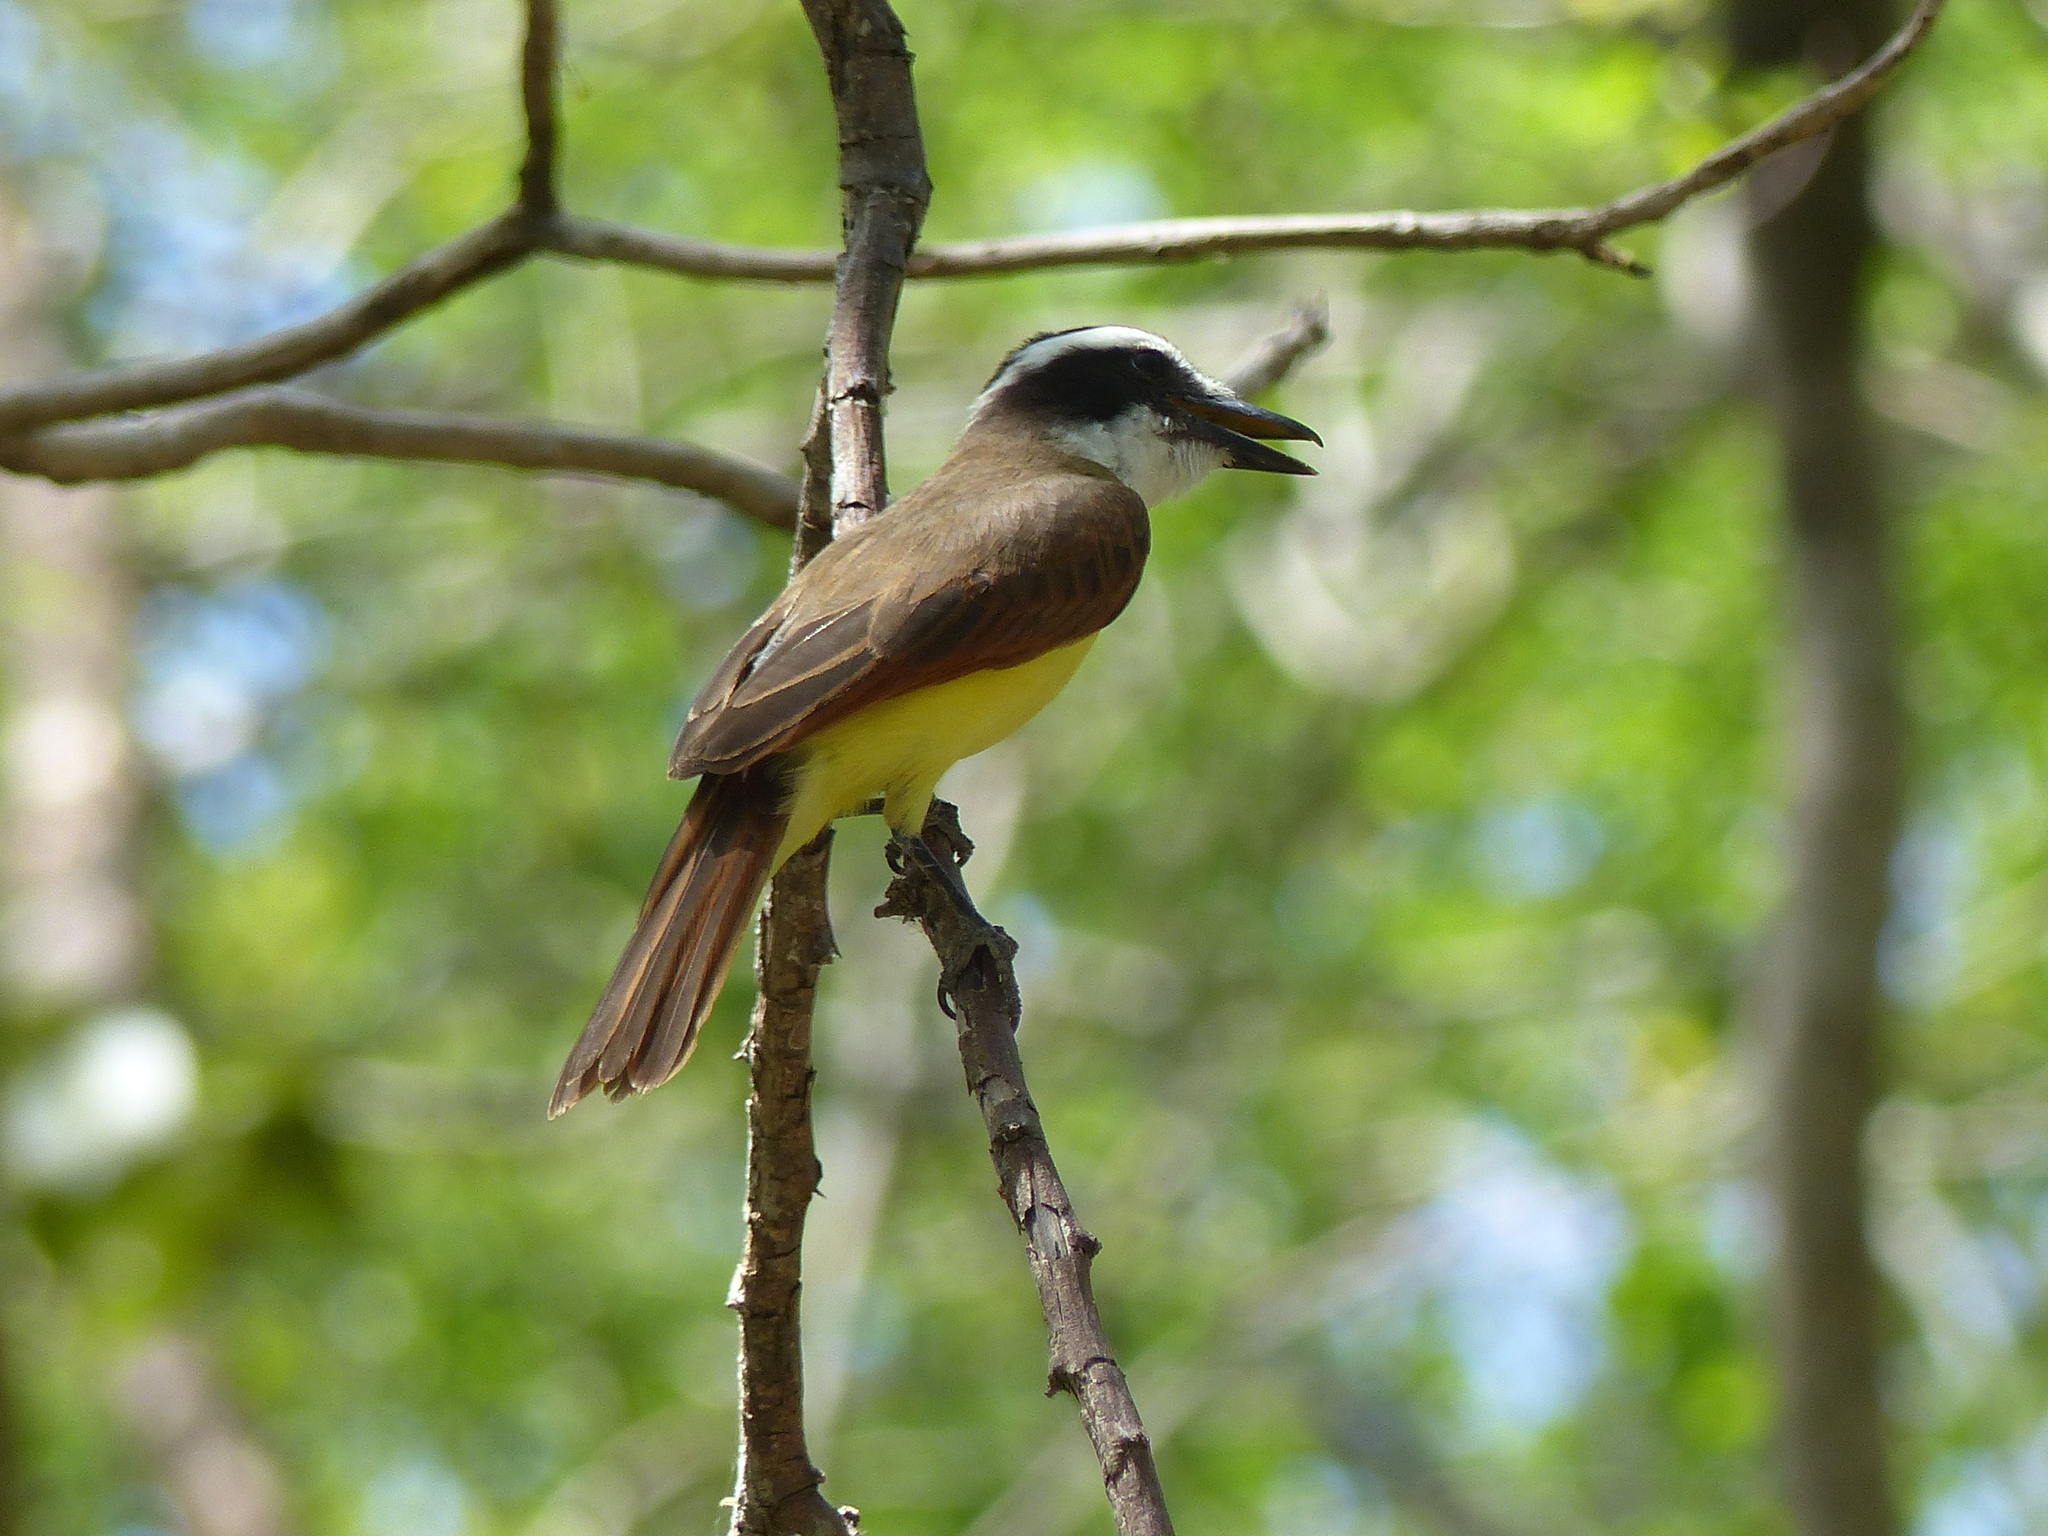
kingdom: Animalia
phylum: Chordata
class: Aves
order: Passeriformes
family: Tyrannidae
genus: Pitangus
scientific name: Pitangus sulphuratus
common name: Great kiskadee
